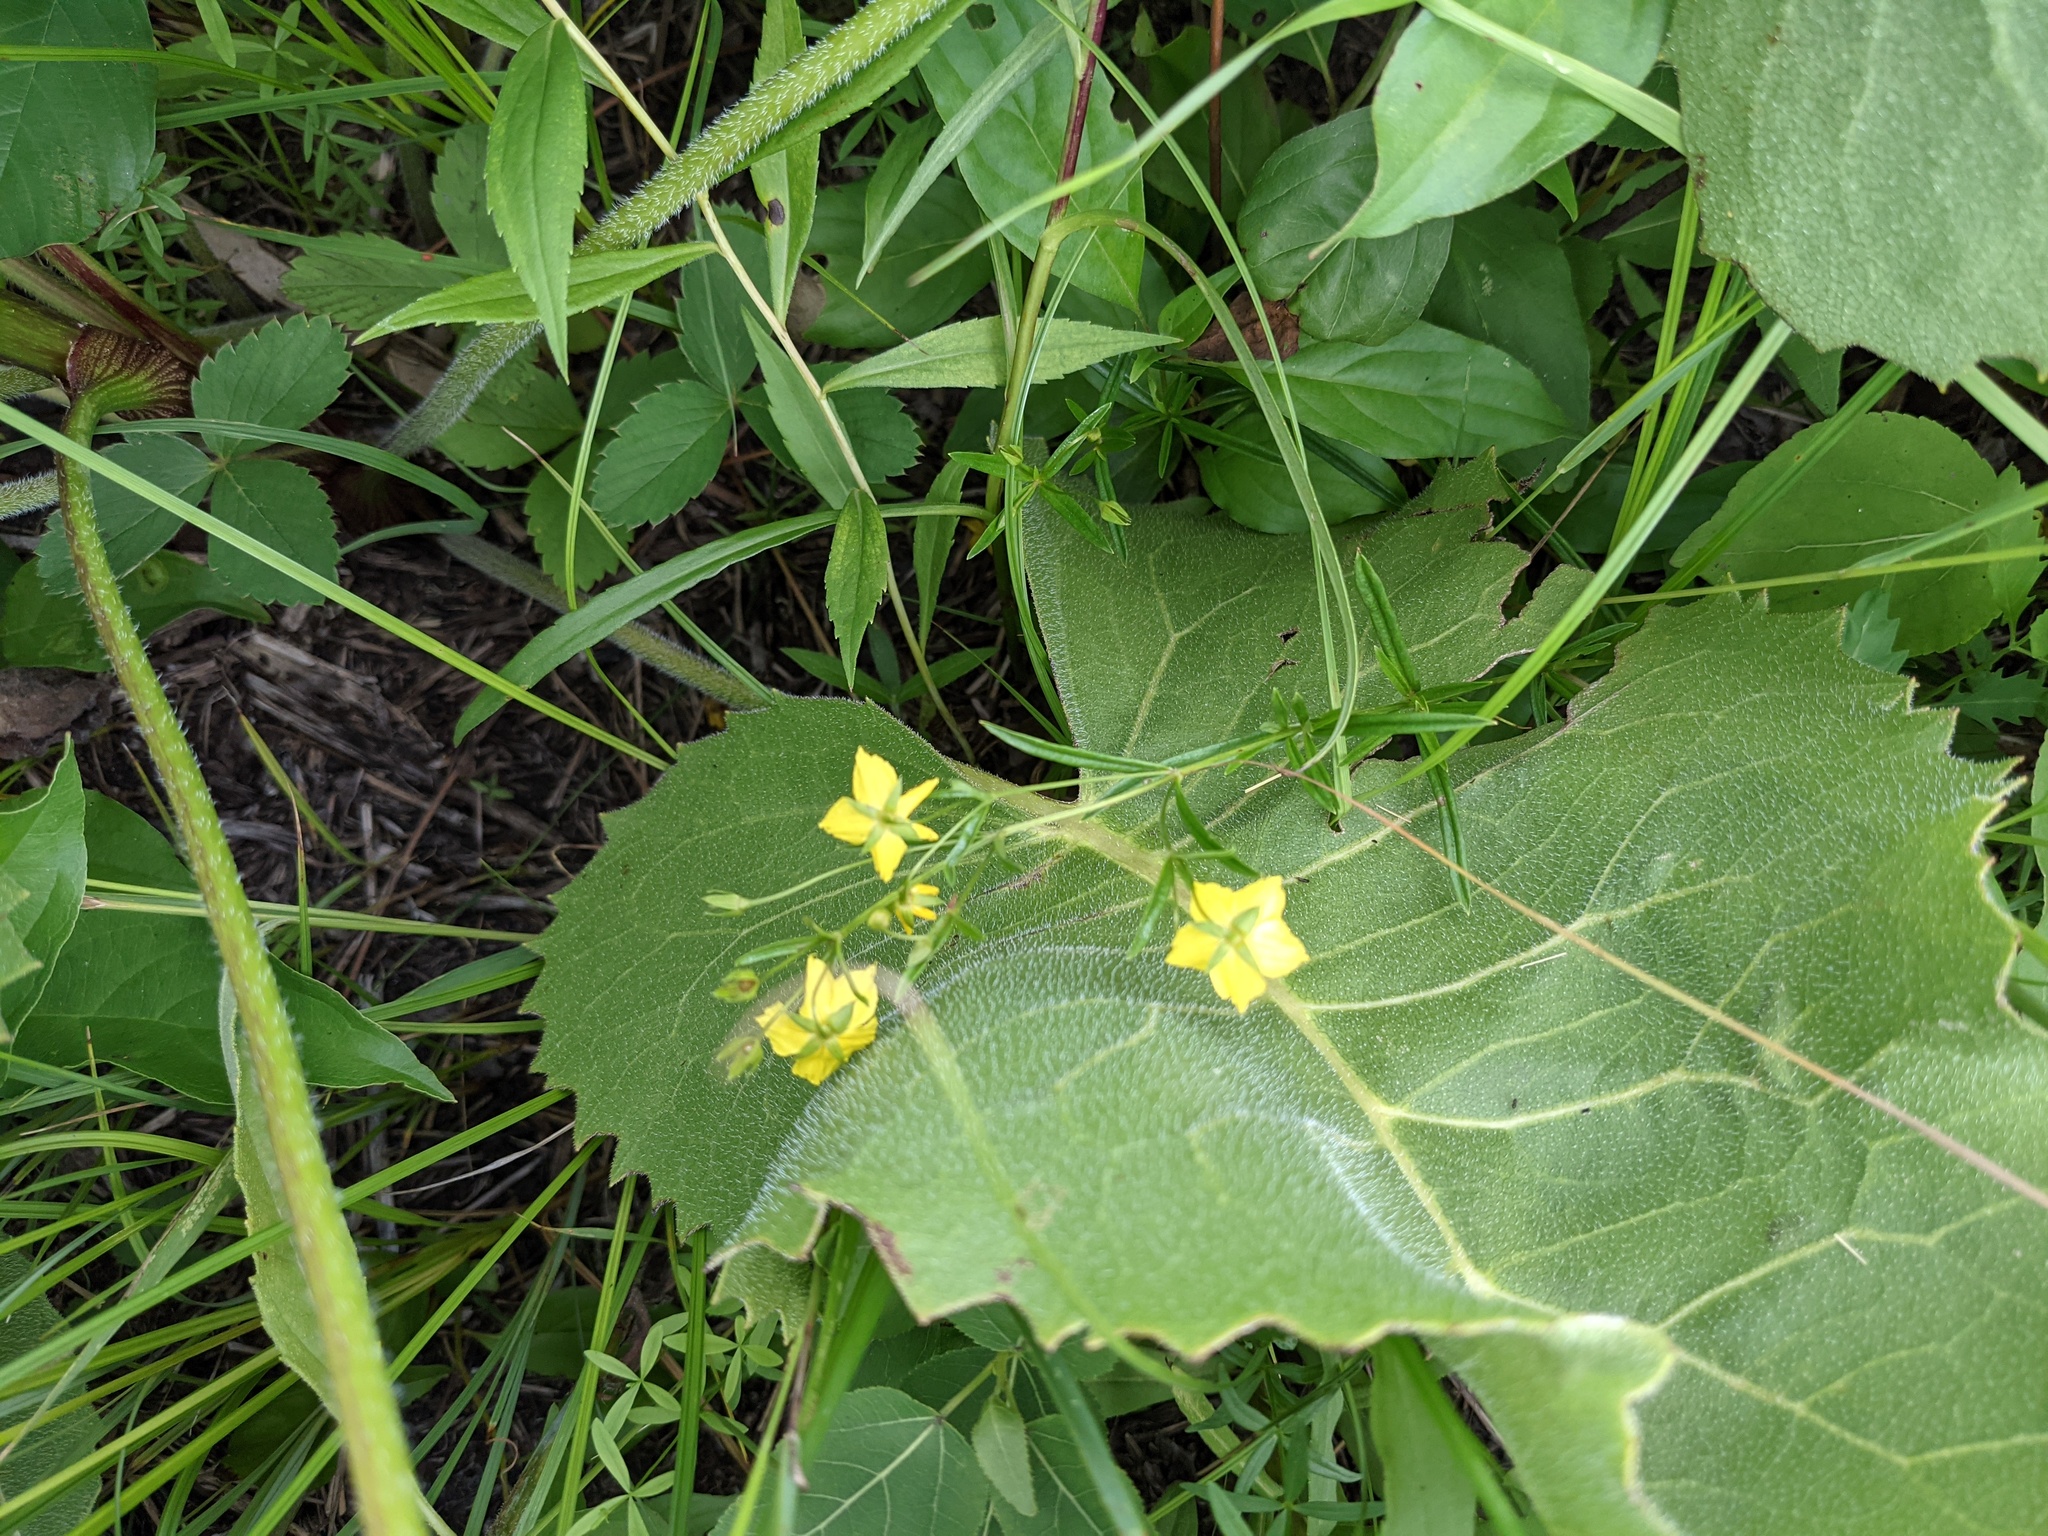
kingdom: Plantae
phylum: Tracheophyta
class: Magnoliopsida
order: Ericales
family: Primulaceae
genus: Lysimachia
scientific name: Lysimachia quadriflora
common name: Four-flowered loosestrife
